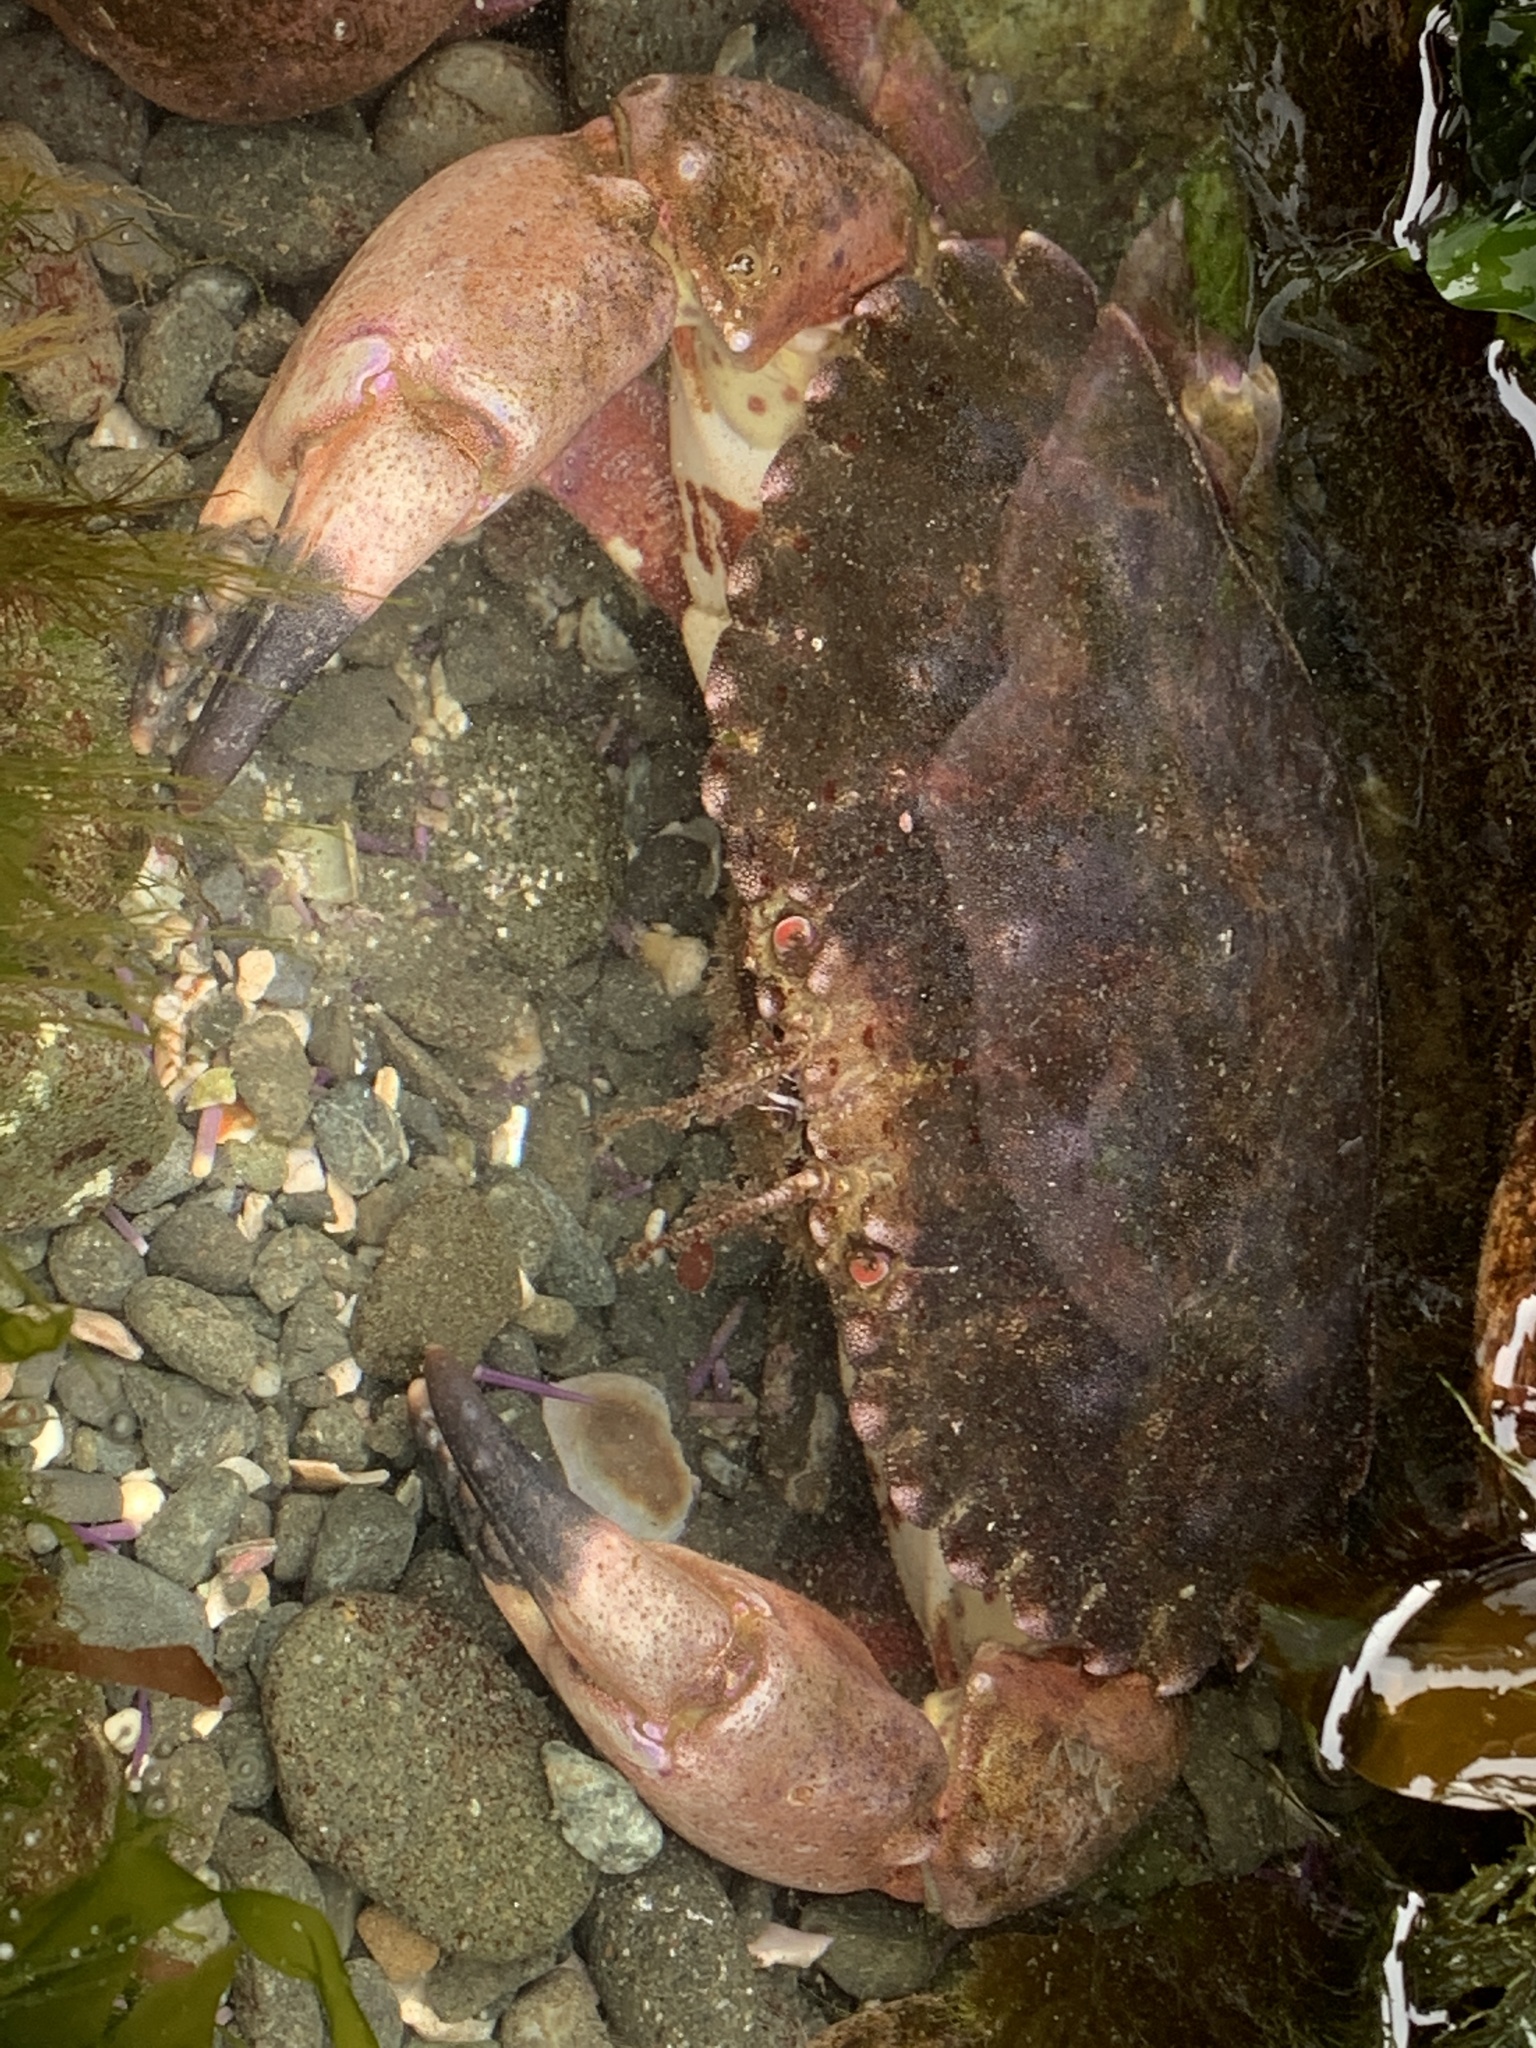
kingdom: Animalia
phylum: Arthropoda
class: Malacostraca
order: Decapoda
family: Cancridae
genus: Romaleon
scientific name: Romaleon antennarium
